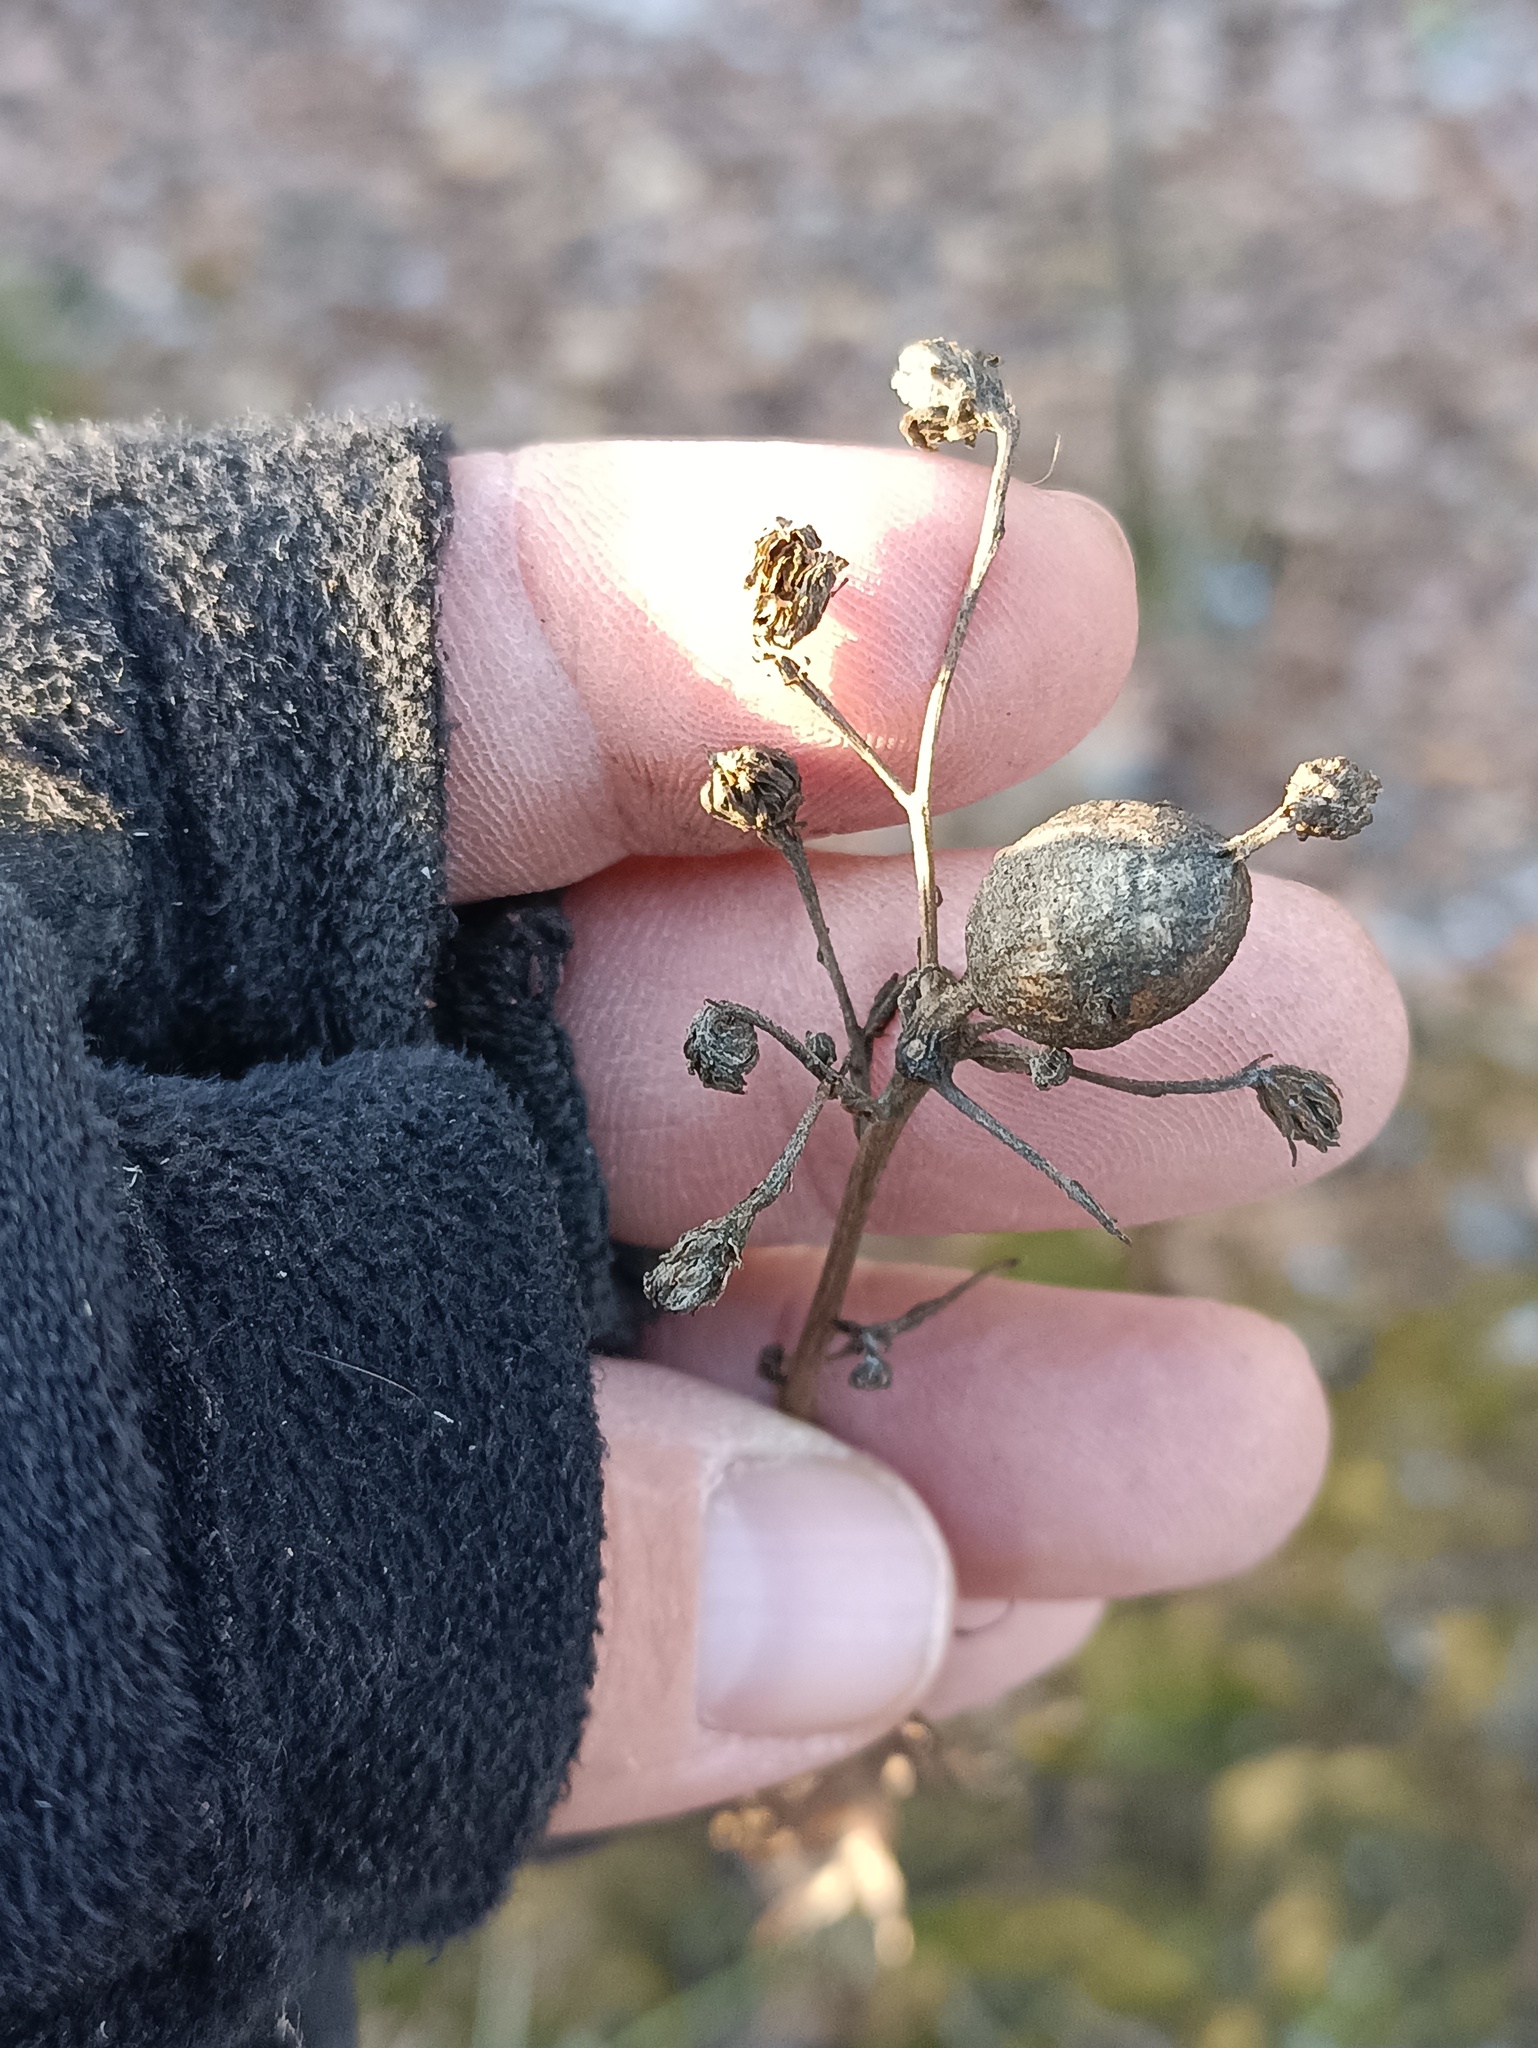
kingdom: Plantae
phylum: Tracheophyta
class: Magnoliopsida
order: Asterales
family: Asteraceae
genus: Hieracium
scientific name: Hieracium umbellatum
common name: Northern hawkweed
